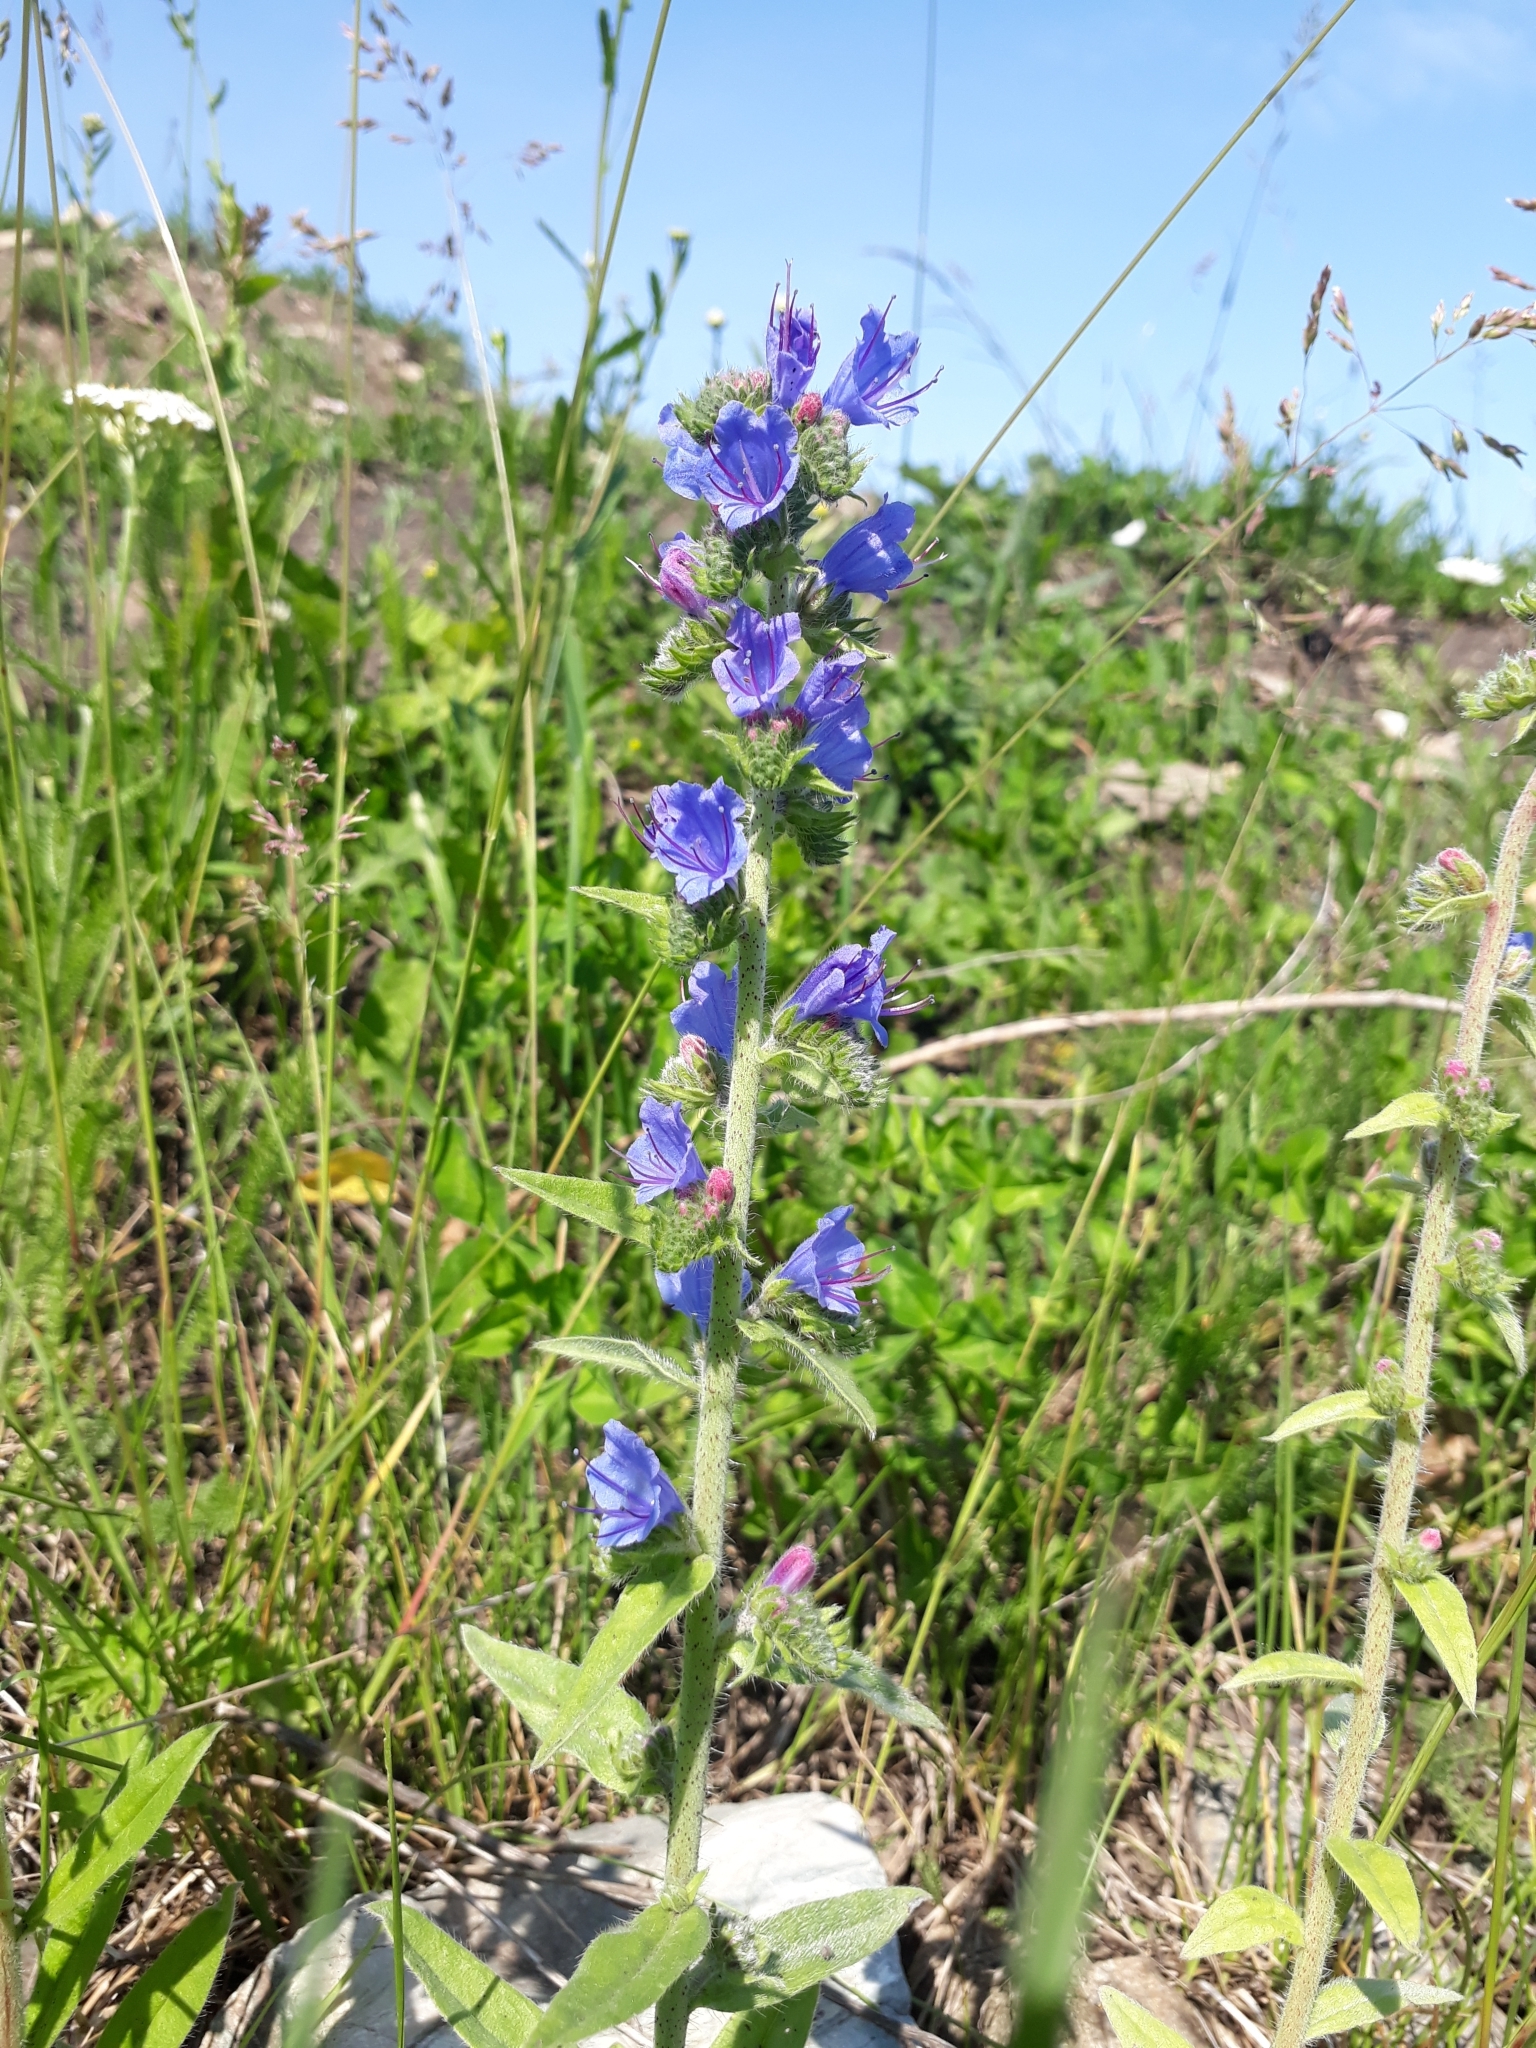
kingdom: Plantae
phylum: Tracheophyta
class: Magnoliopsida
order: Boraginales
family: Boraginaceae
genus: Echium
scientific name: Echium vulgare
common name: Common viper's bugloss
